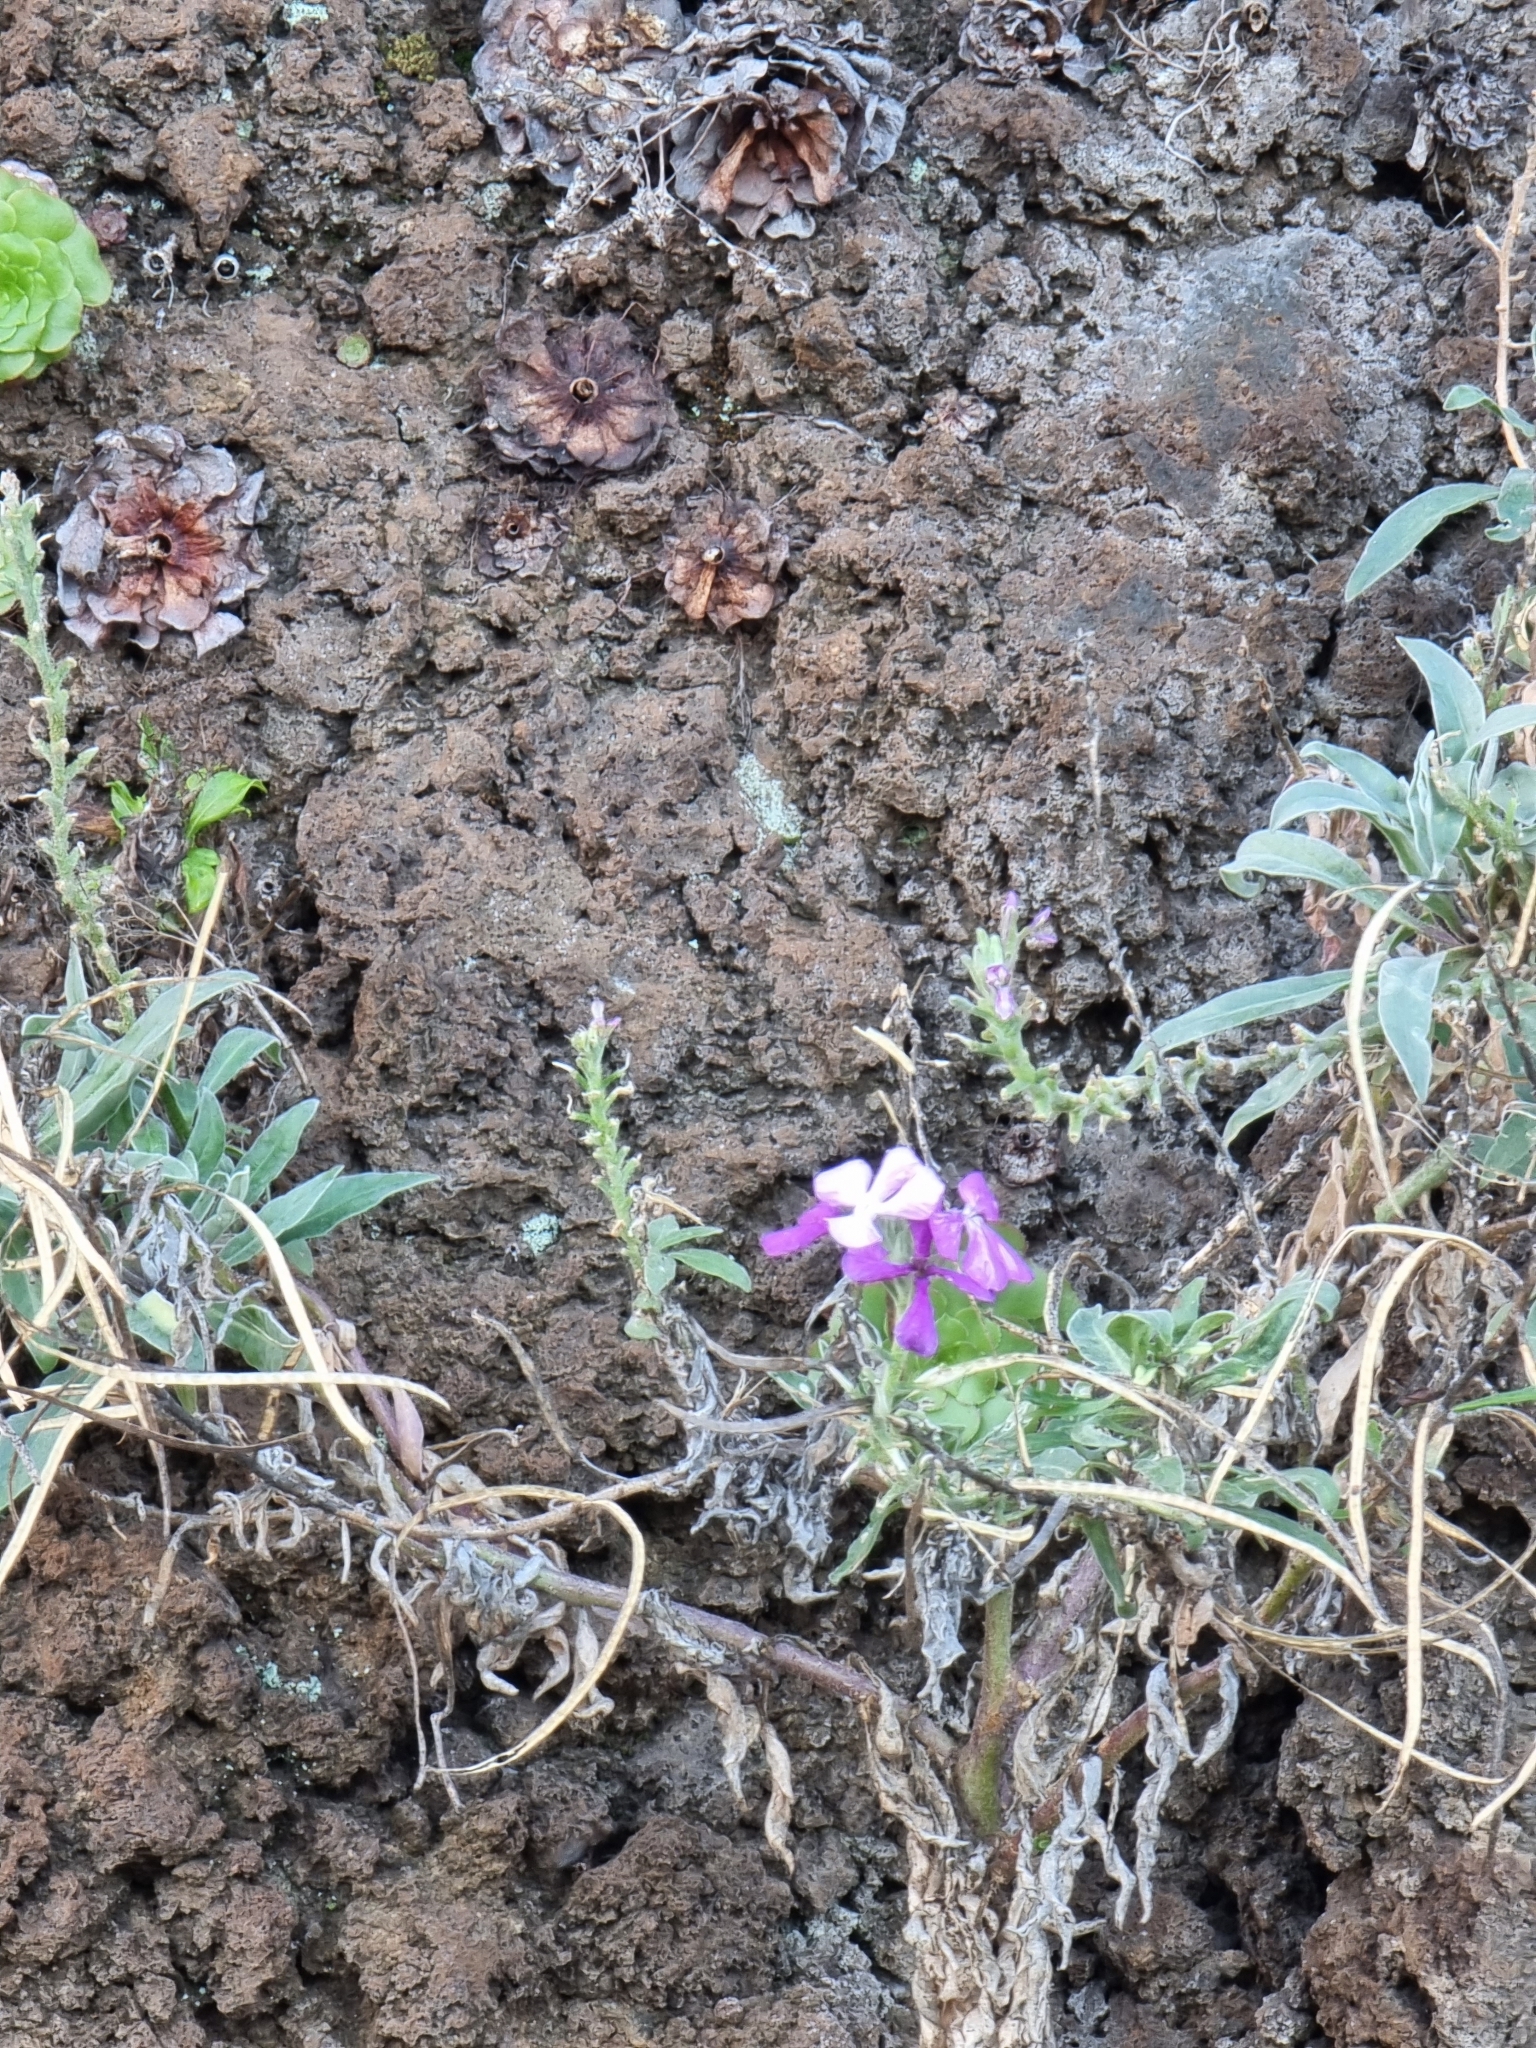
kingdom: Plantae
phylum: Tracheophyta
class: Magnoliopsida
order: Brassicales
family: Brassicaceae
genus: Matthiola
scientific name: Matthiola maderensis
